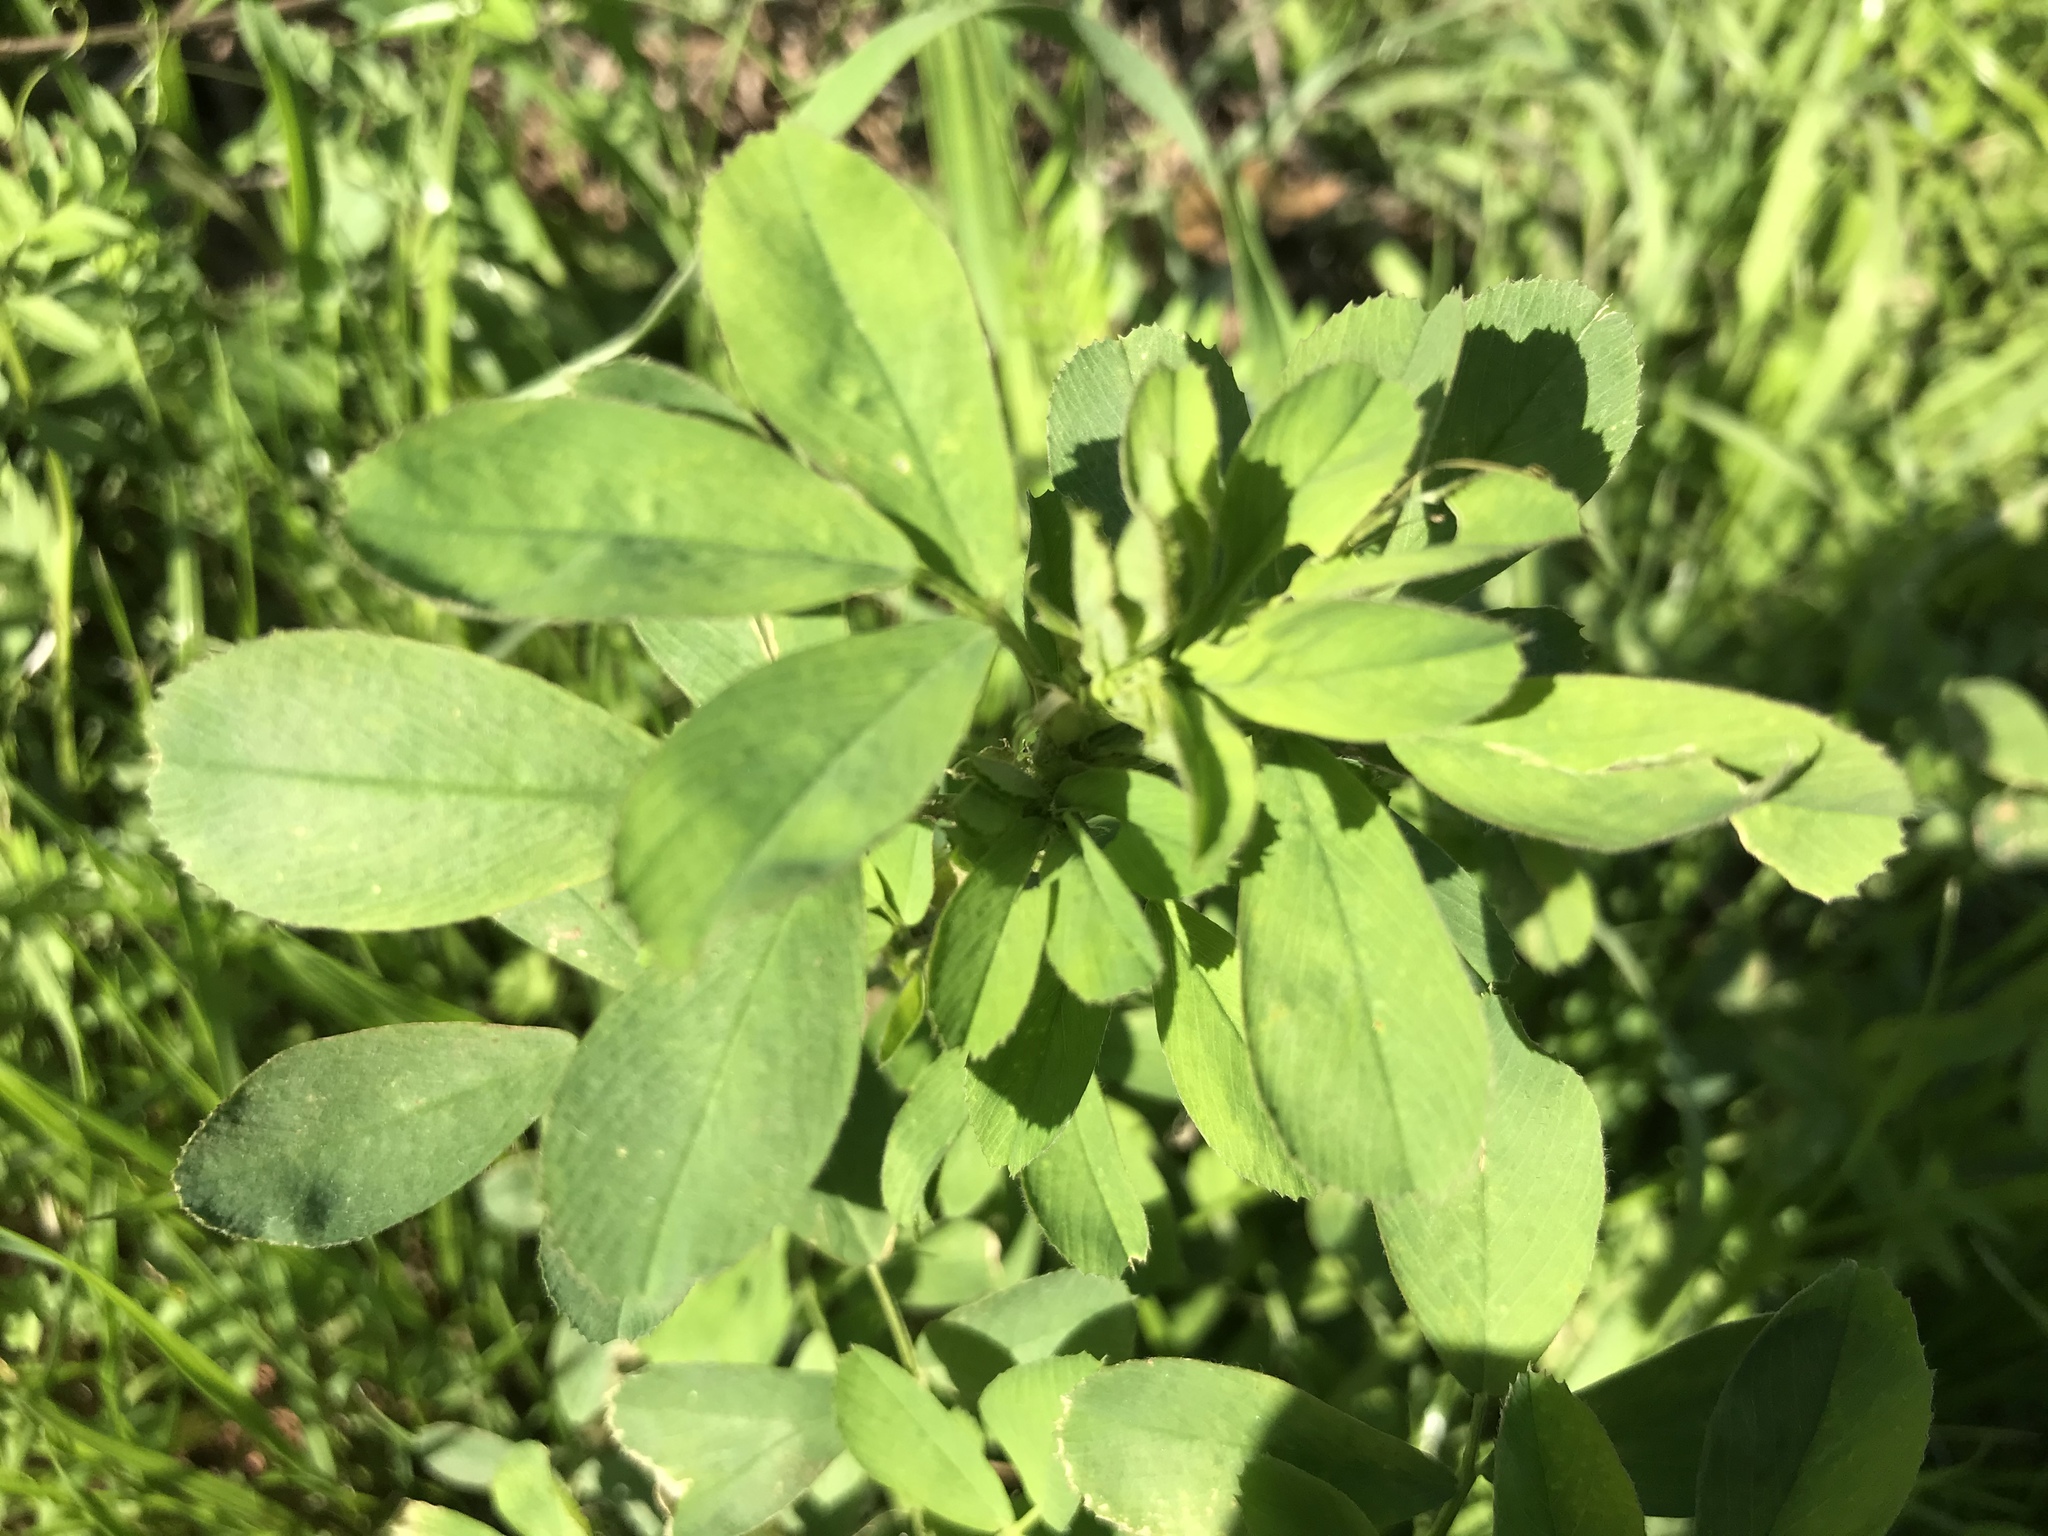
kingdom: Plantae
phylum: Tracheophyta
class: Magnoliopsida
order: Fabales
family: Fabaceae
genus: Medicago
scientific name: Medicago sativa
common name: Alfalfa
